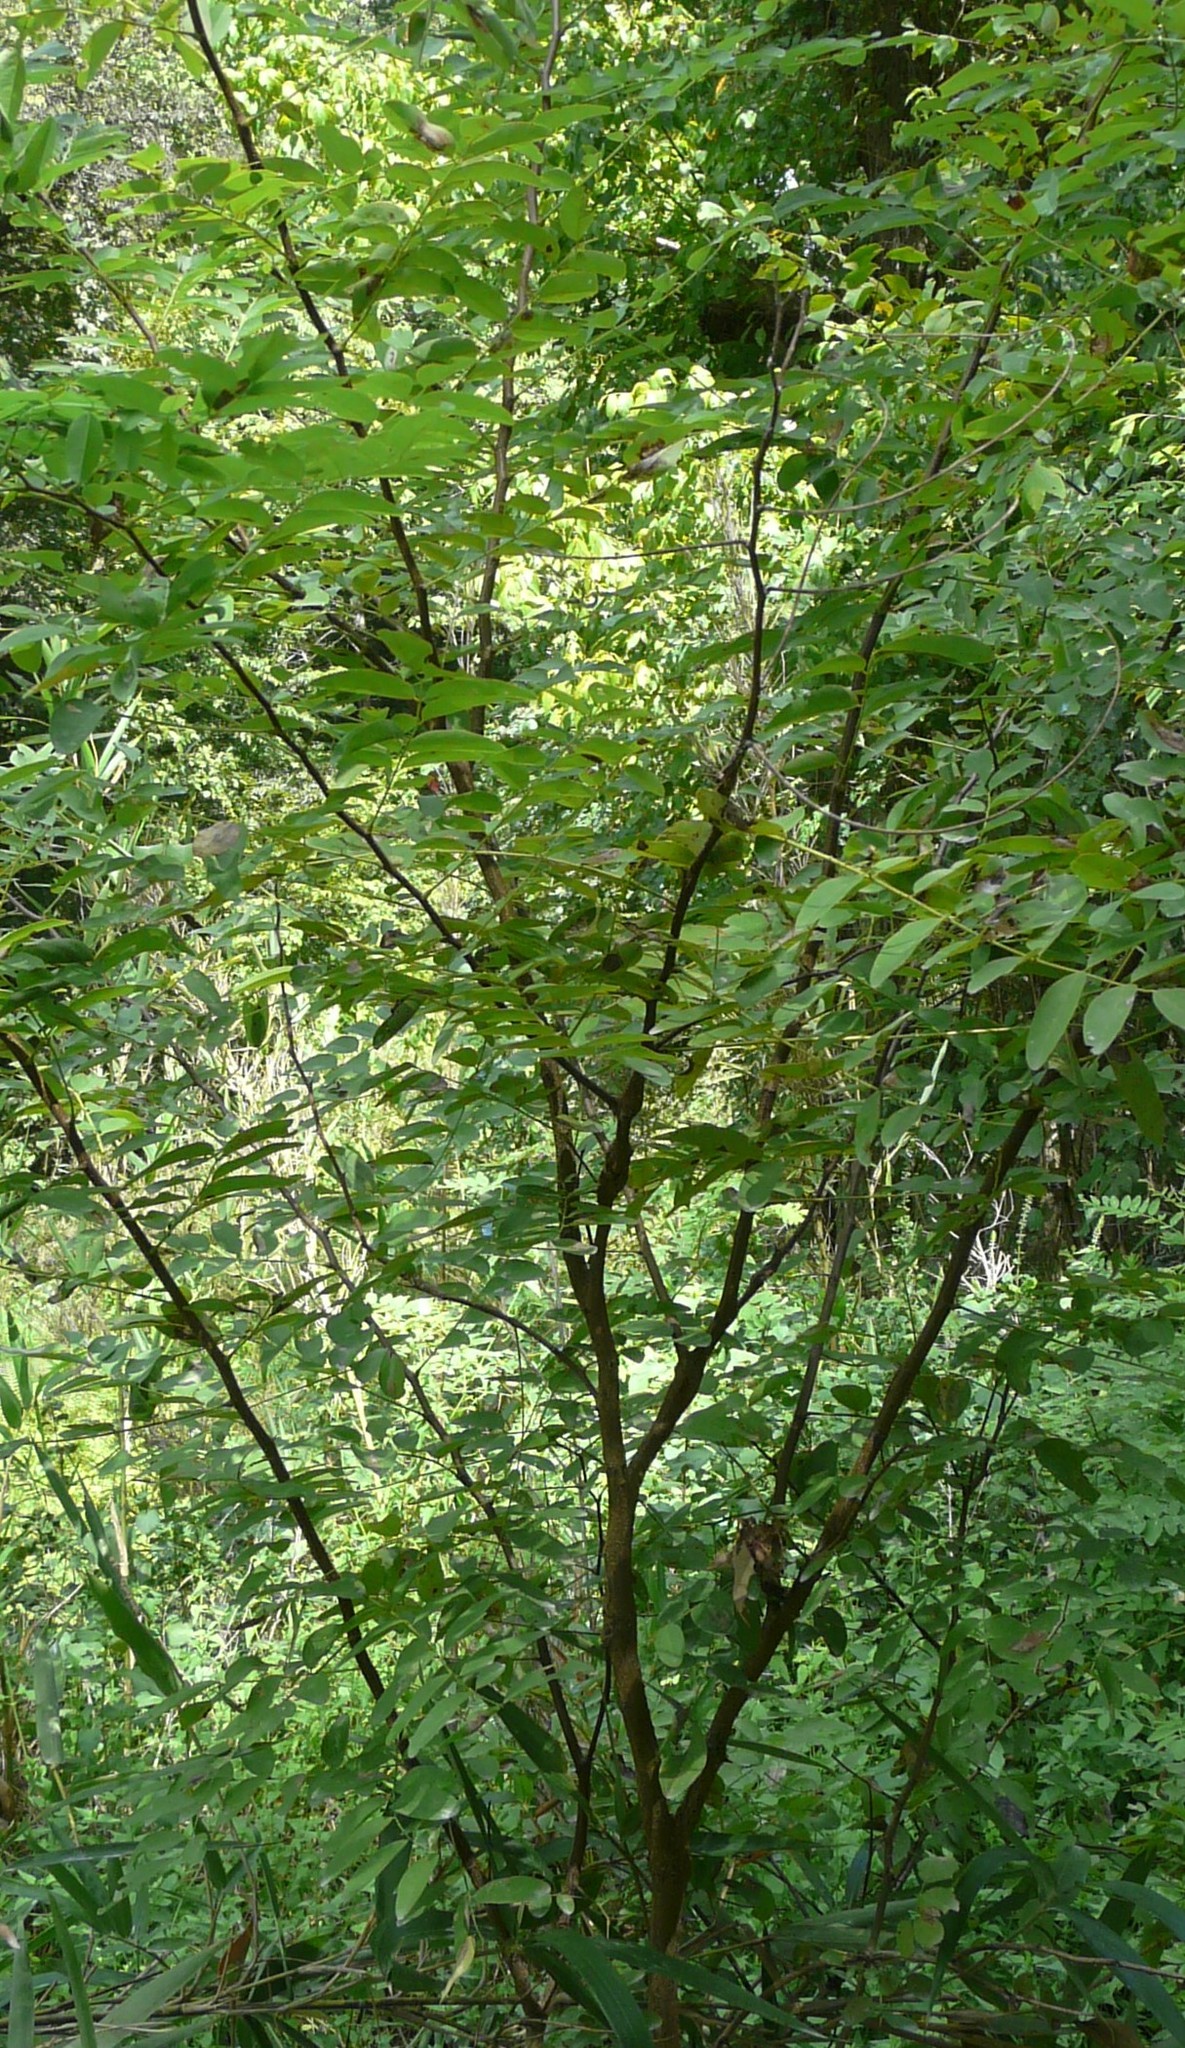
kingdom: Plantae
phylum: Tracheophyta
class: Magnoliopsida
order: Fabales
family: Fabaceae
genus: Robinia
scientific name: Robinia pseudoacacia
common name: Black locust
